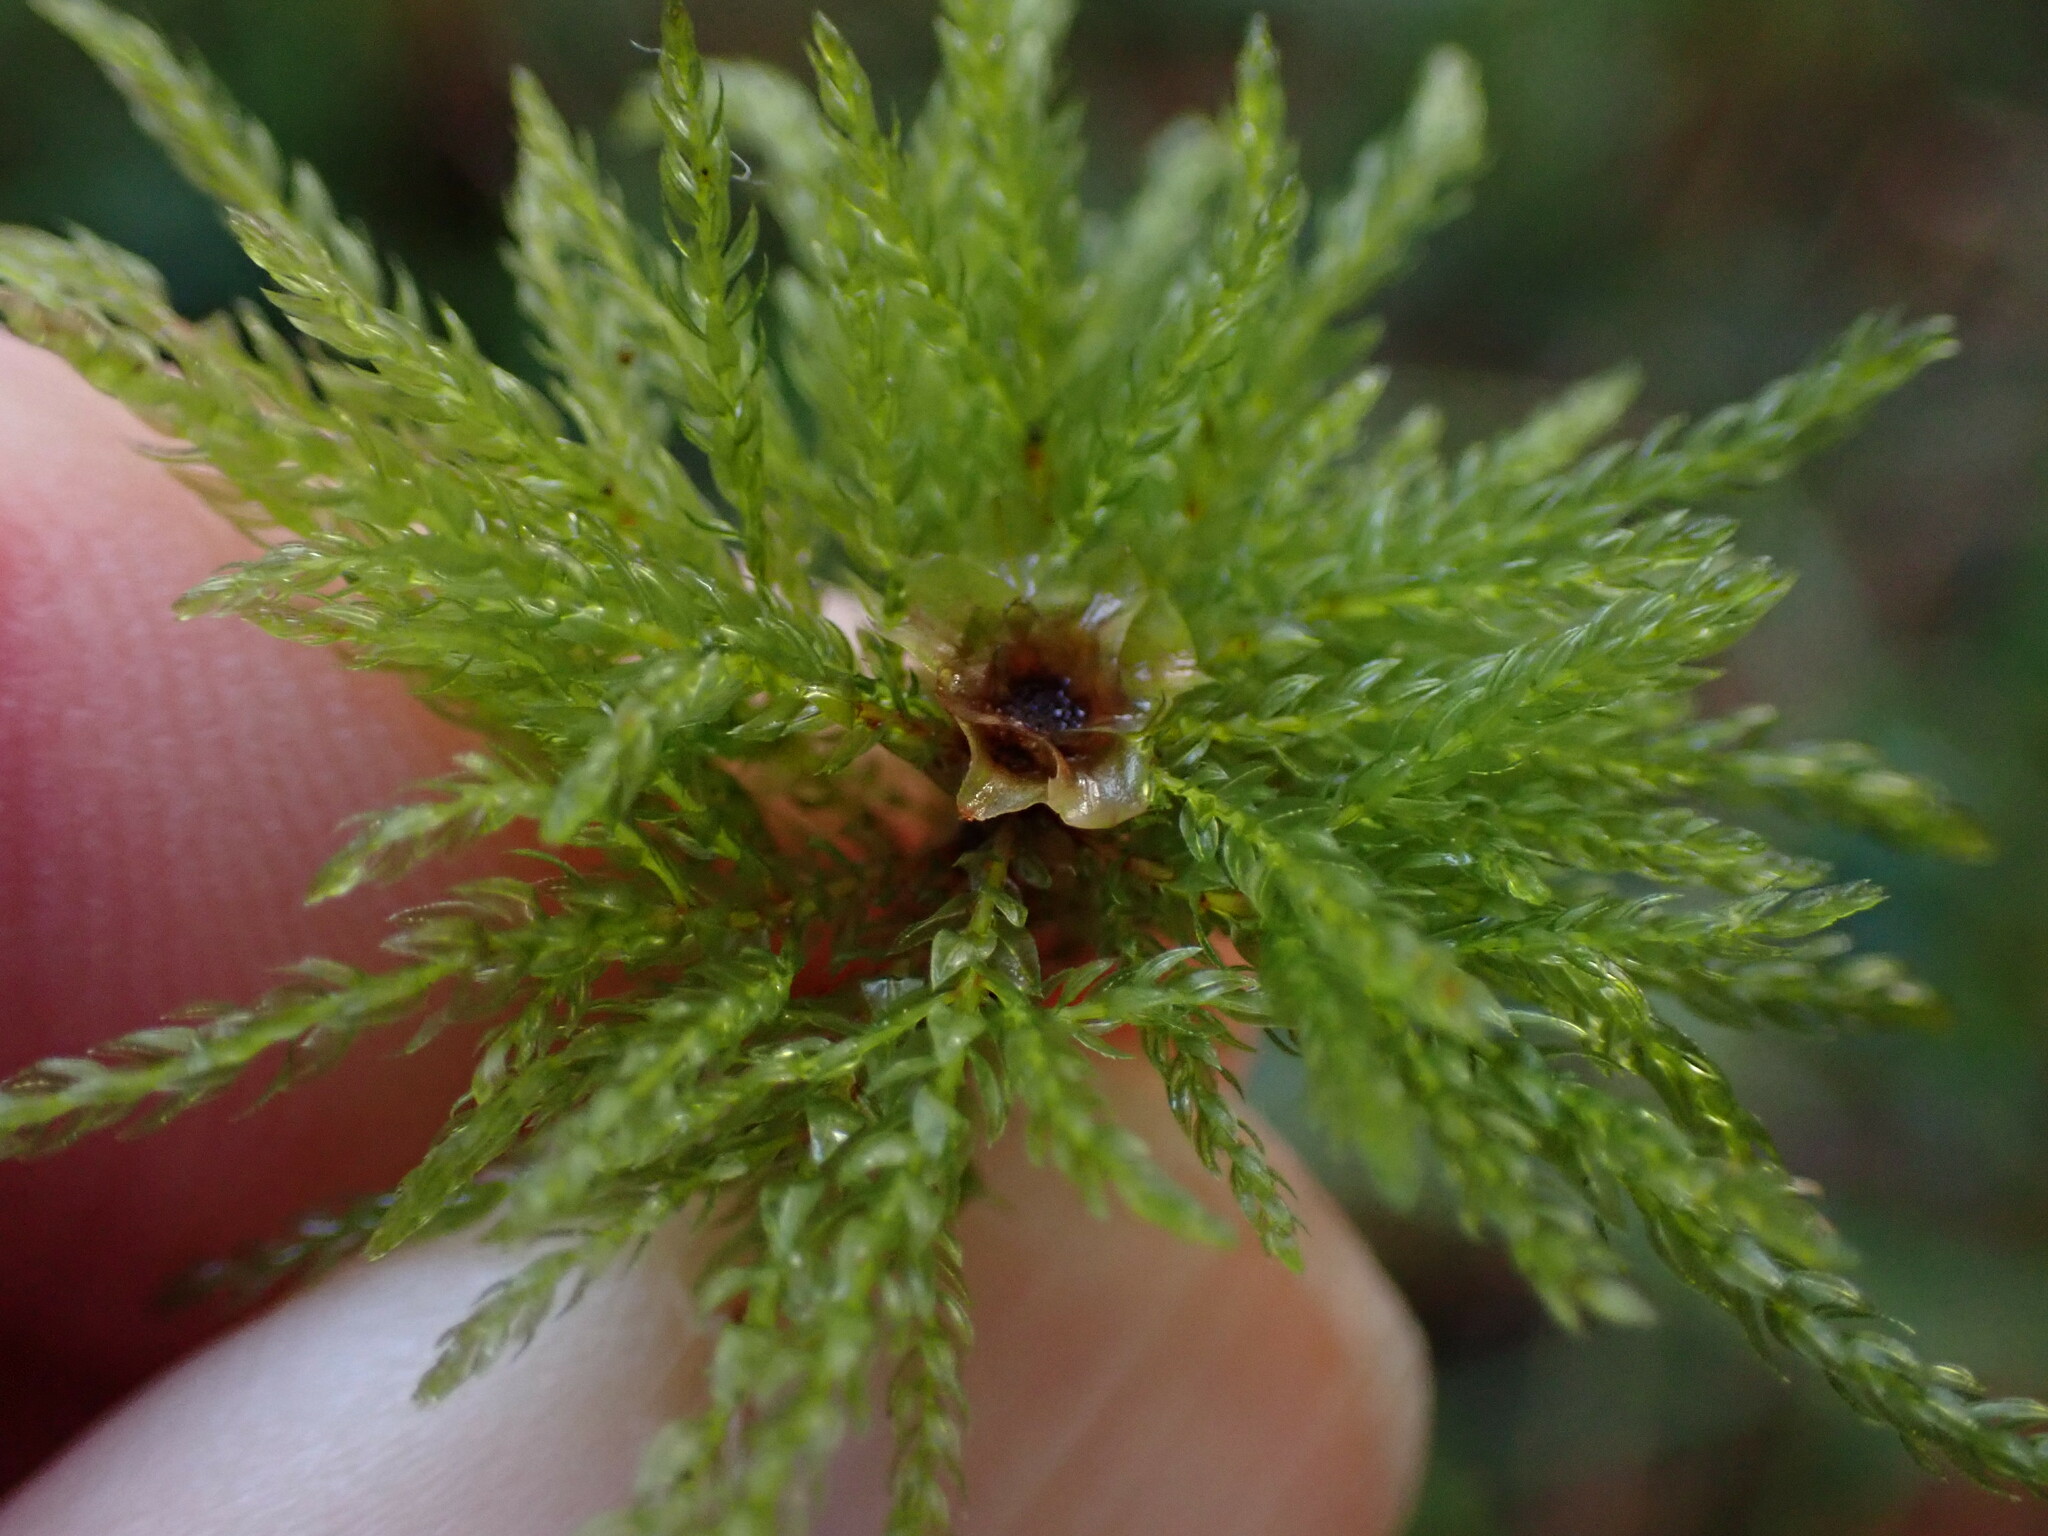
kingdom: Plantae
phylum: Bryophyta
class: Bryopsida
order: Bryales
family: Mniaceae
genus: Leucolepis
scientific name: Leucolepis acanthoneura
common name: Leucolepis umbrella moss
